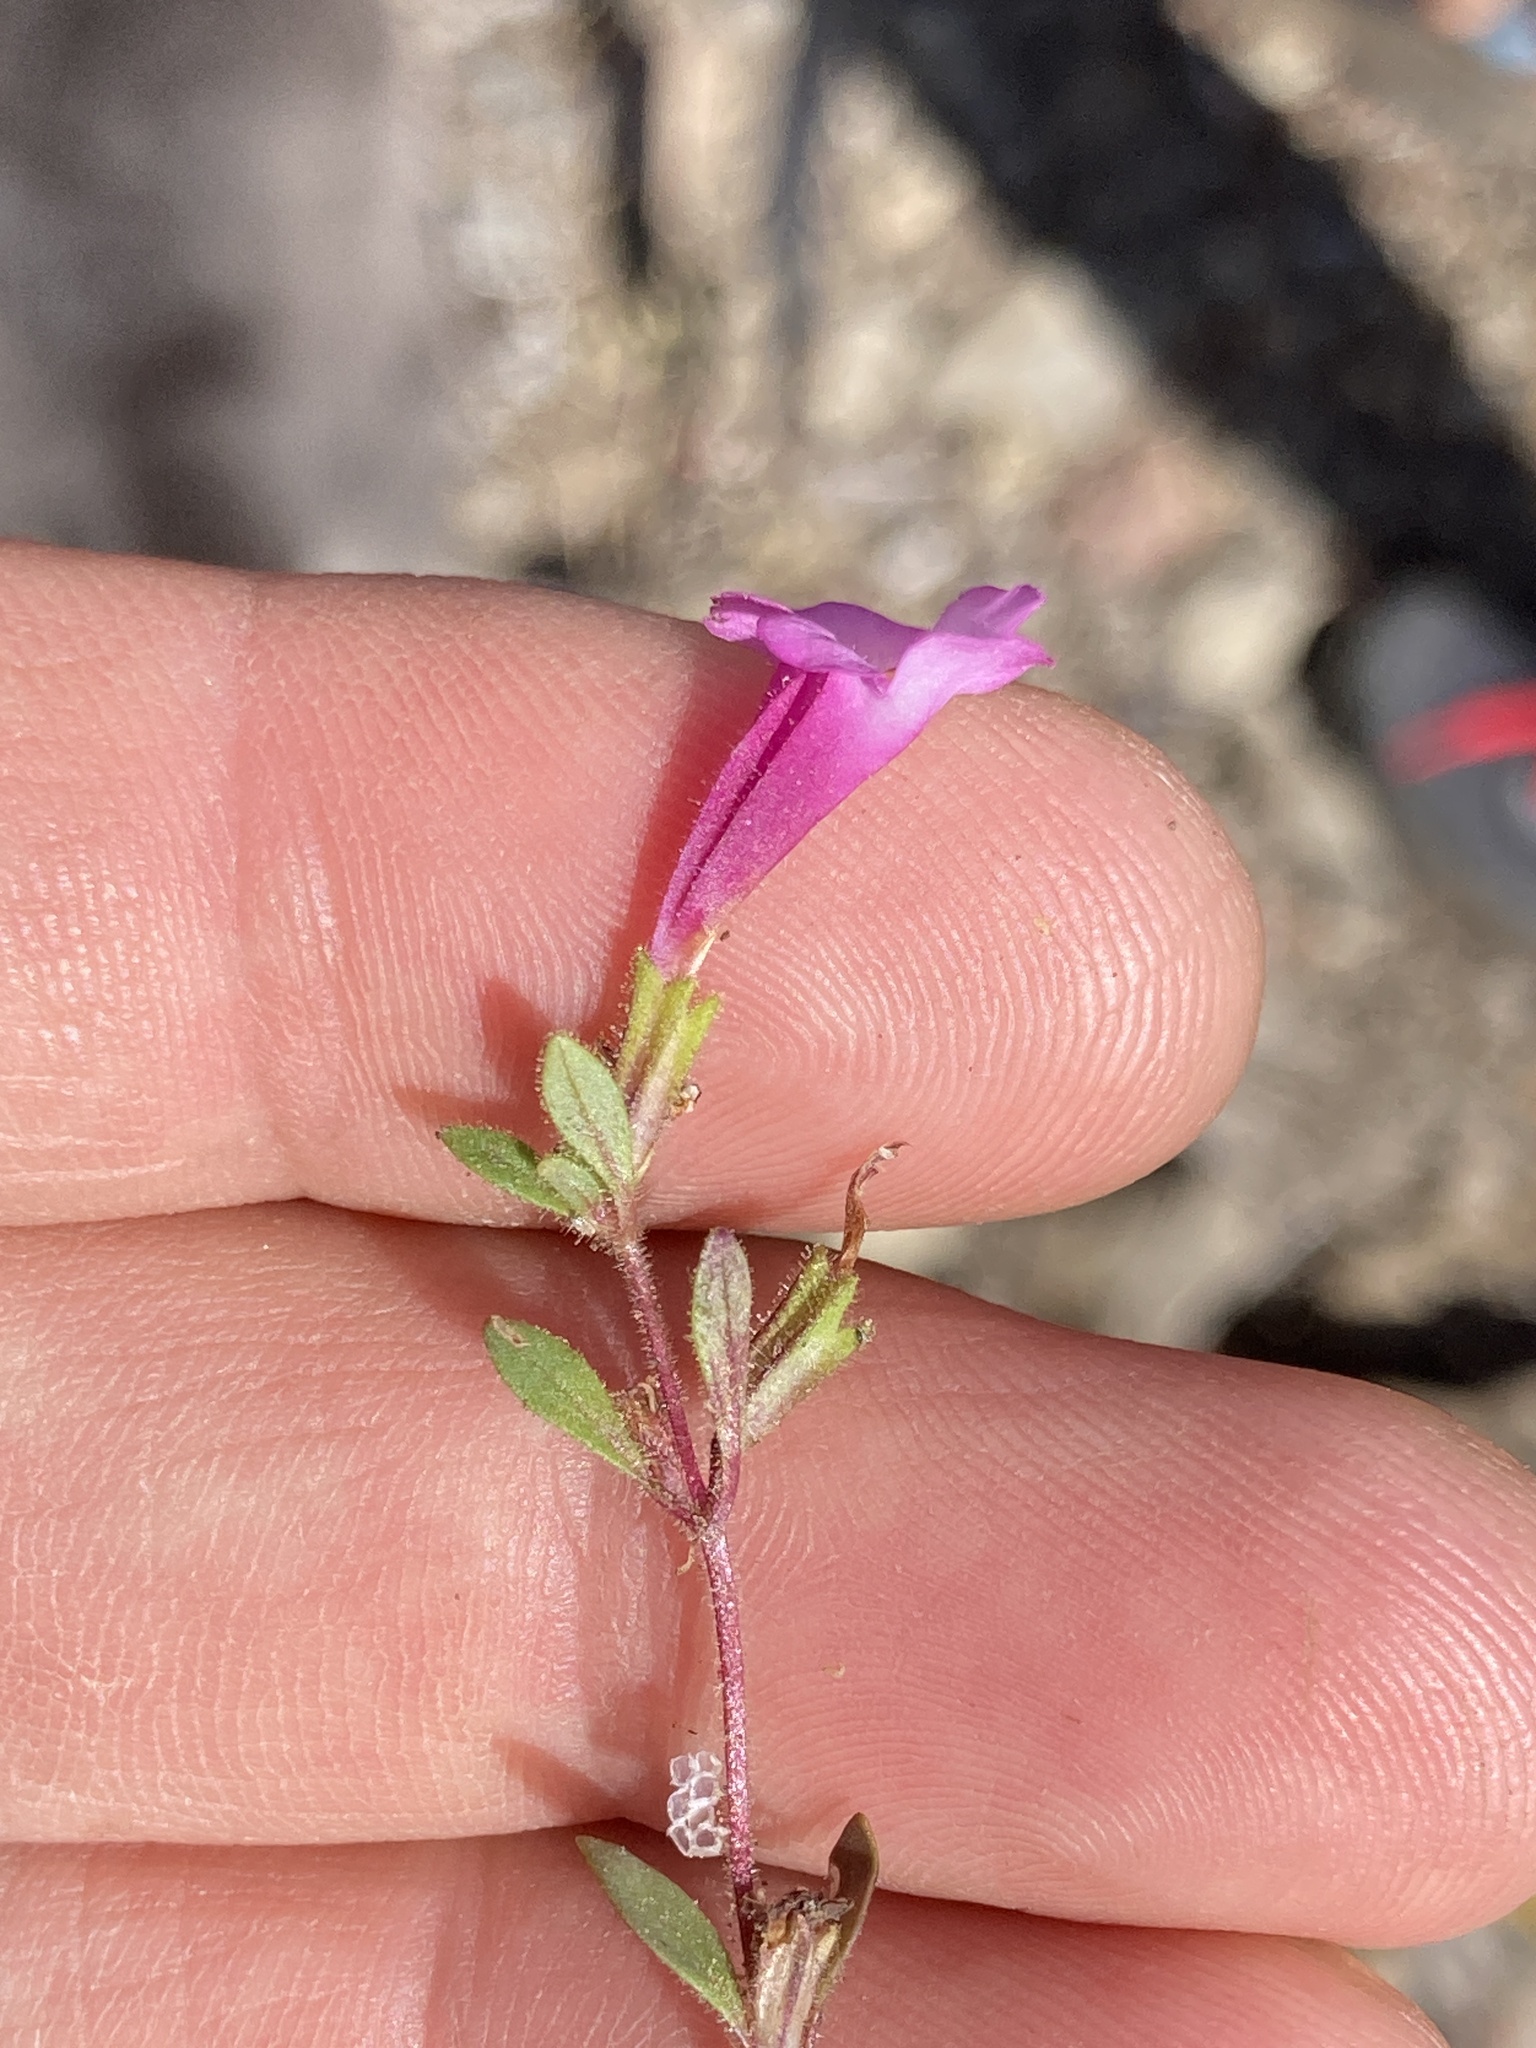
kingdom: Plantae
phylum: Tracheophyta
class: Magnoliopsida
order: Lamiales
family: Phrymaceae
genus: Diplacus
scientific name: Diplacus torreyi
